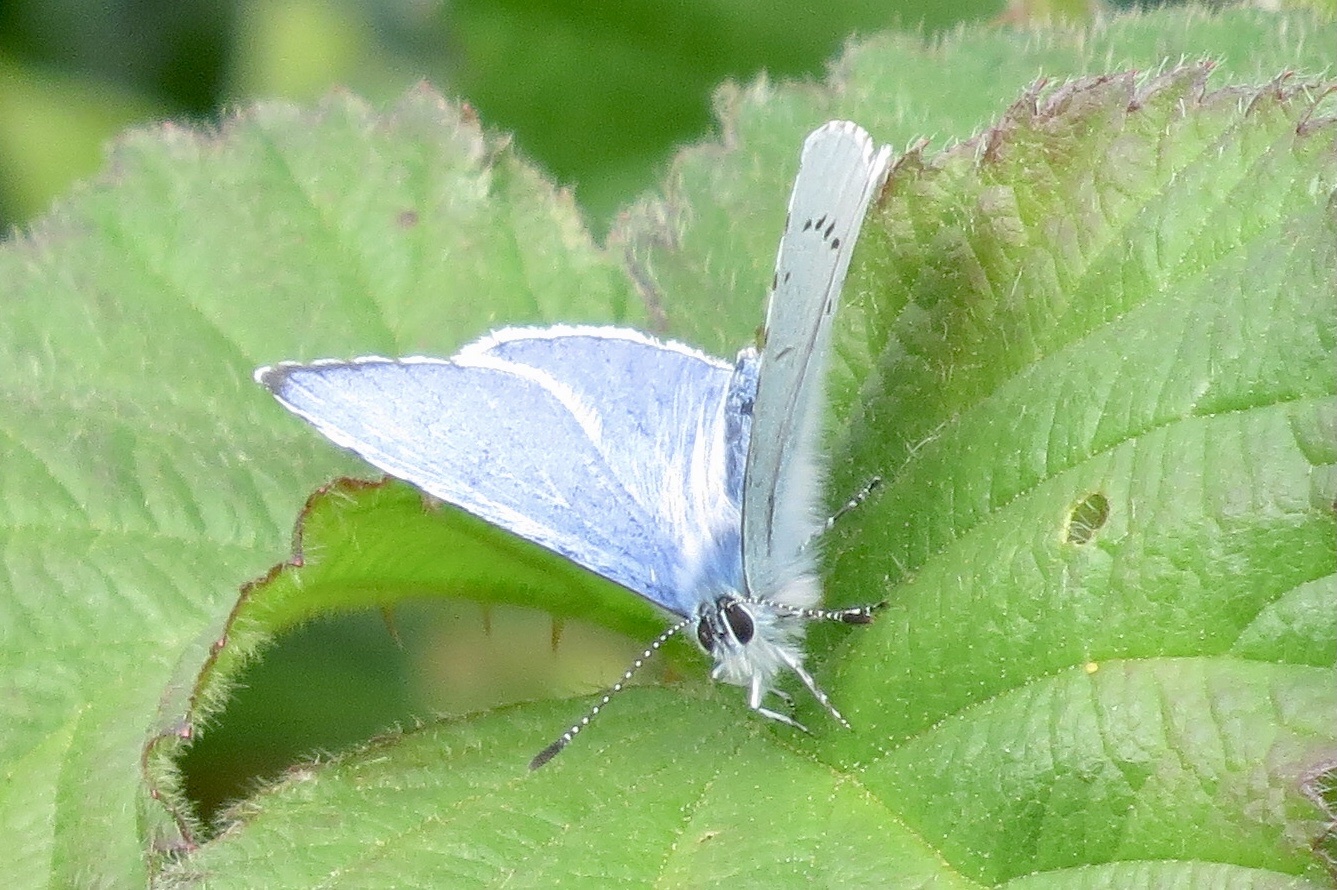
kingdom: Animalia
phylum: Arthropoda
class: Insecta
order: Lepidoptera
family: Lycaenidae
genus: Celastrina
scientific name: Celastrina argiolus
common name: Holly blue
